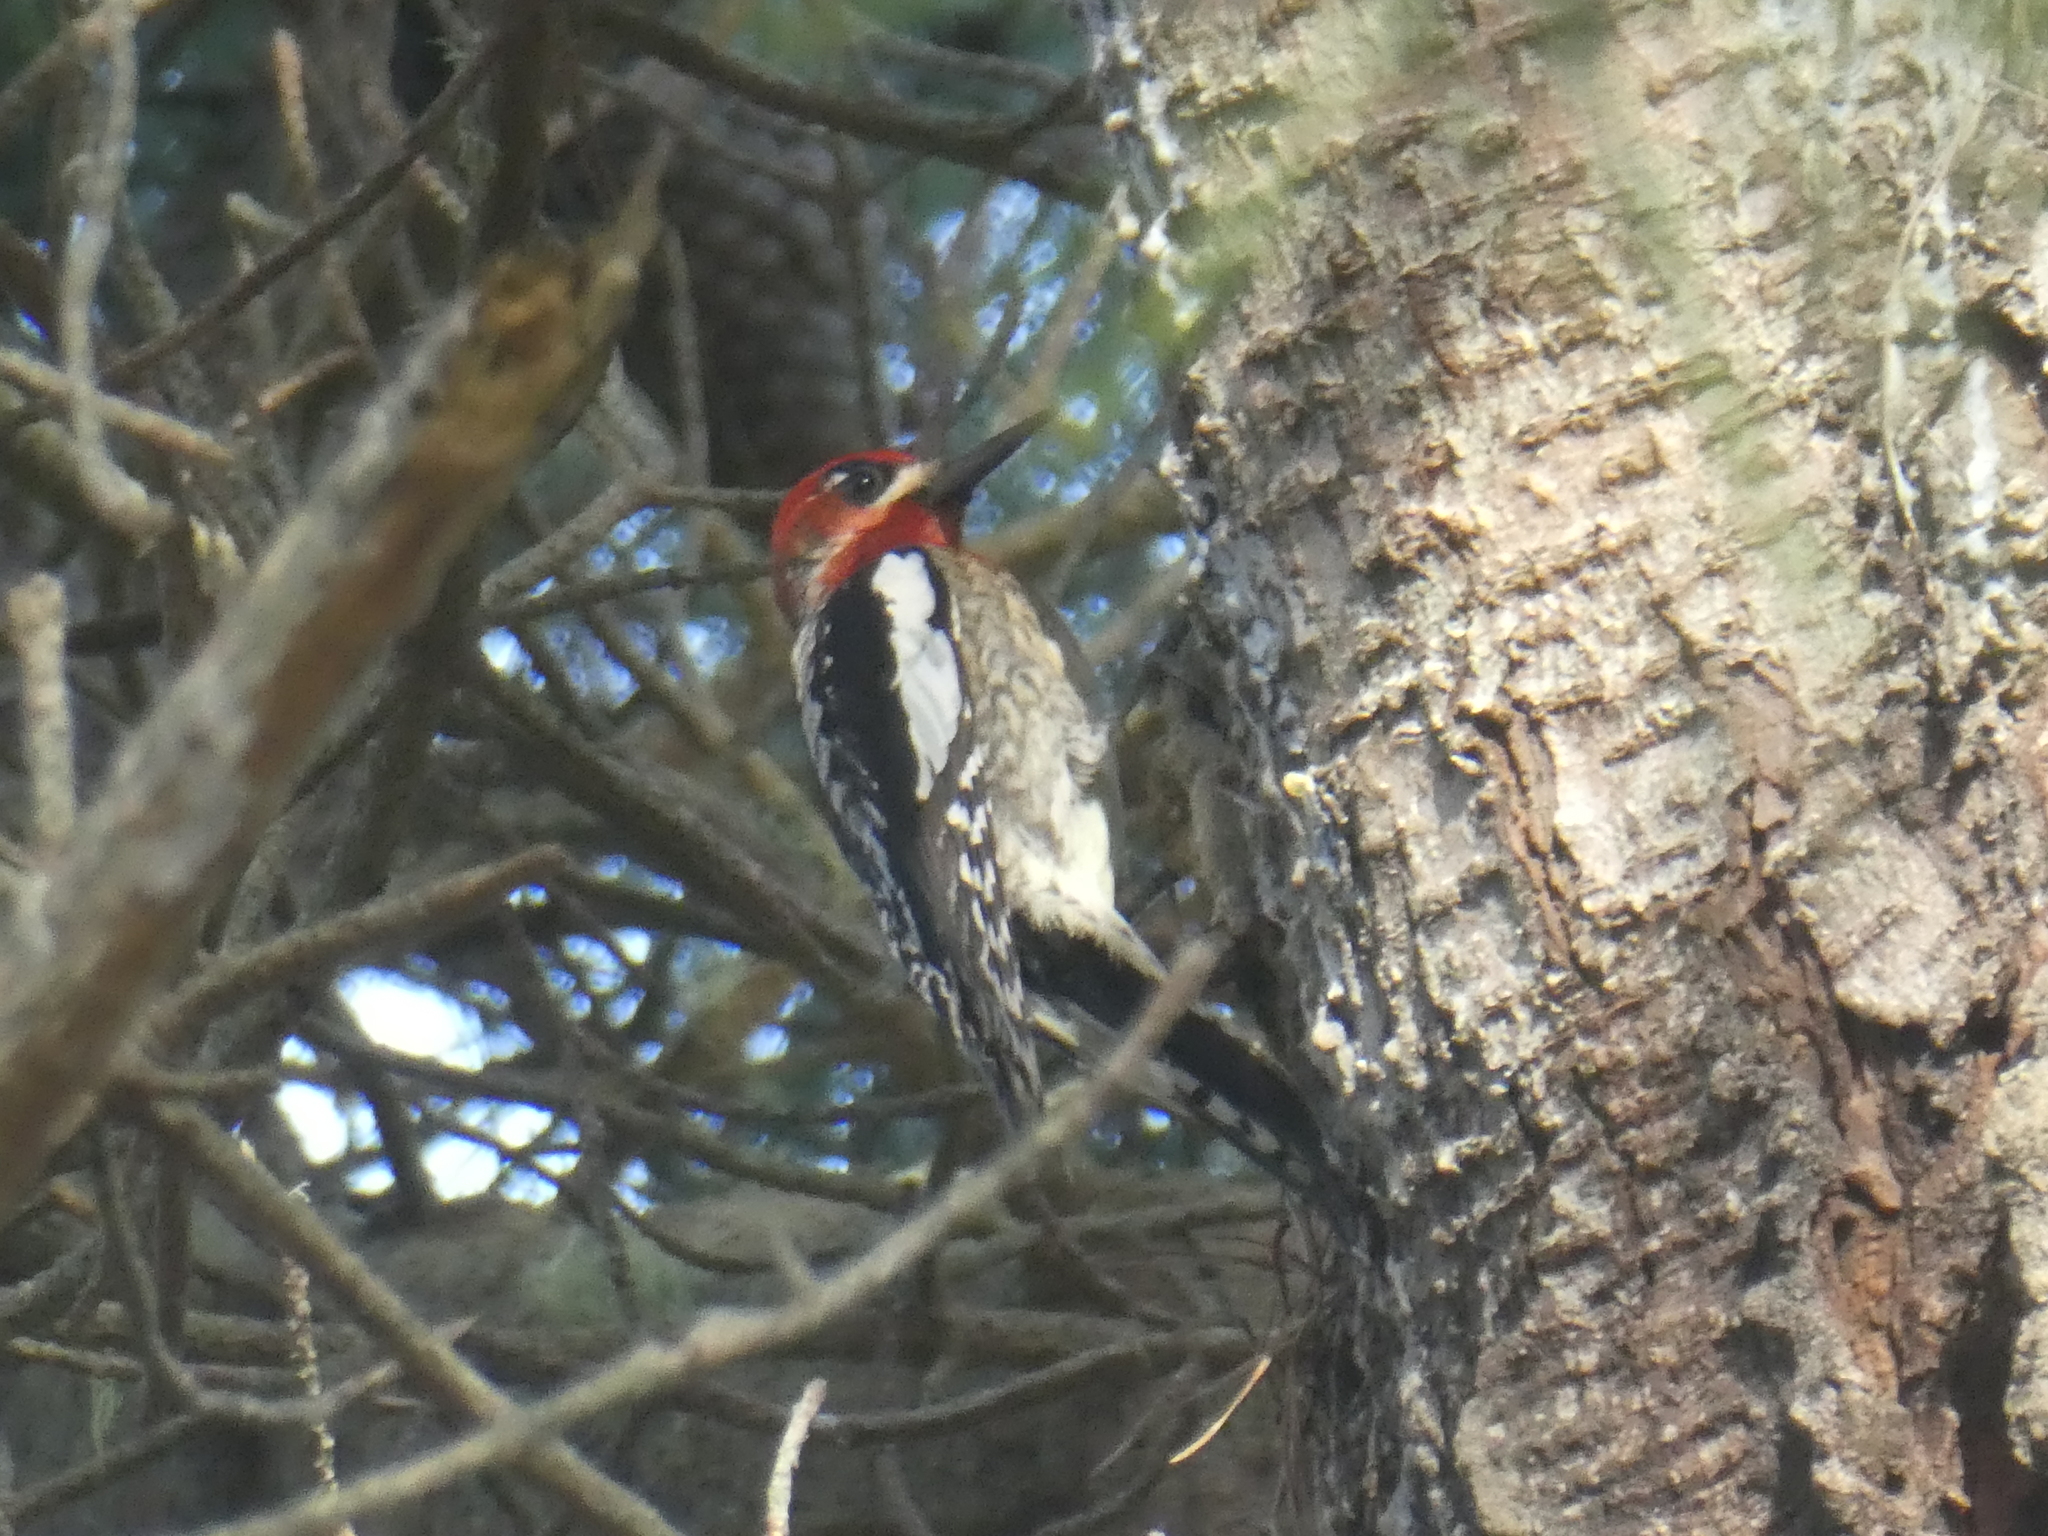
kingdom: Animalia
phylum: Chordata
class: Aves
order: Piciformes
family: Picidae
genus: Sphyrapicus
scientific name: Sphyrapicus
